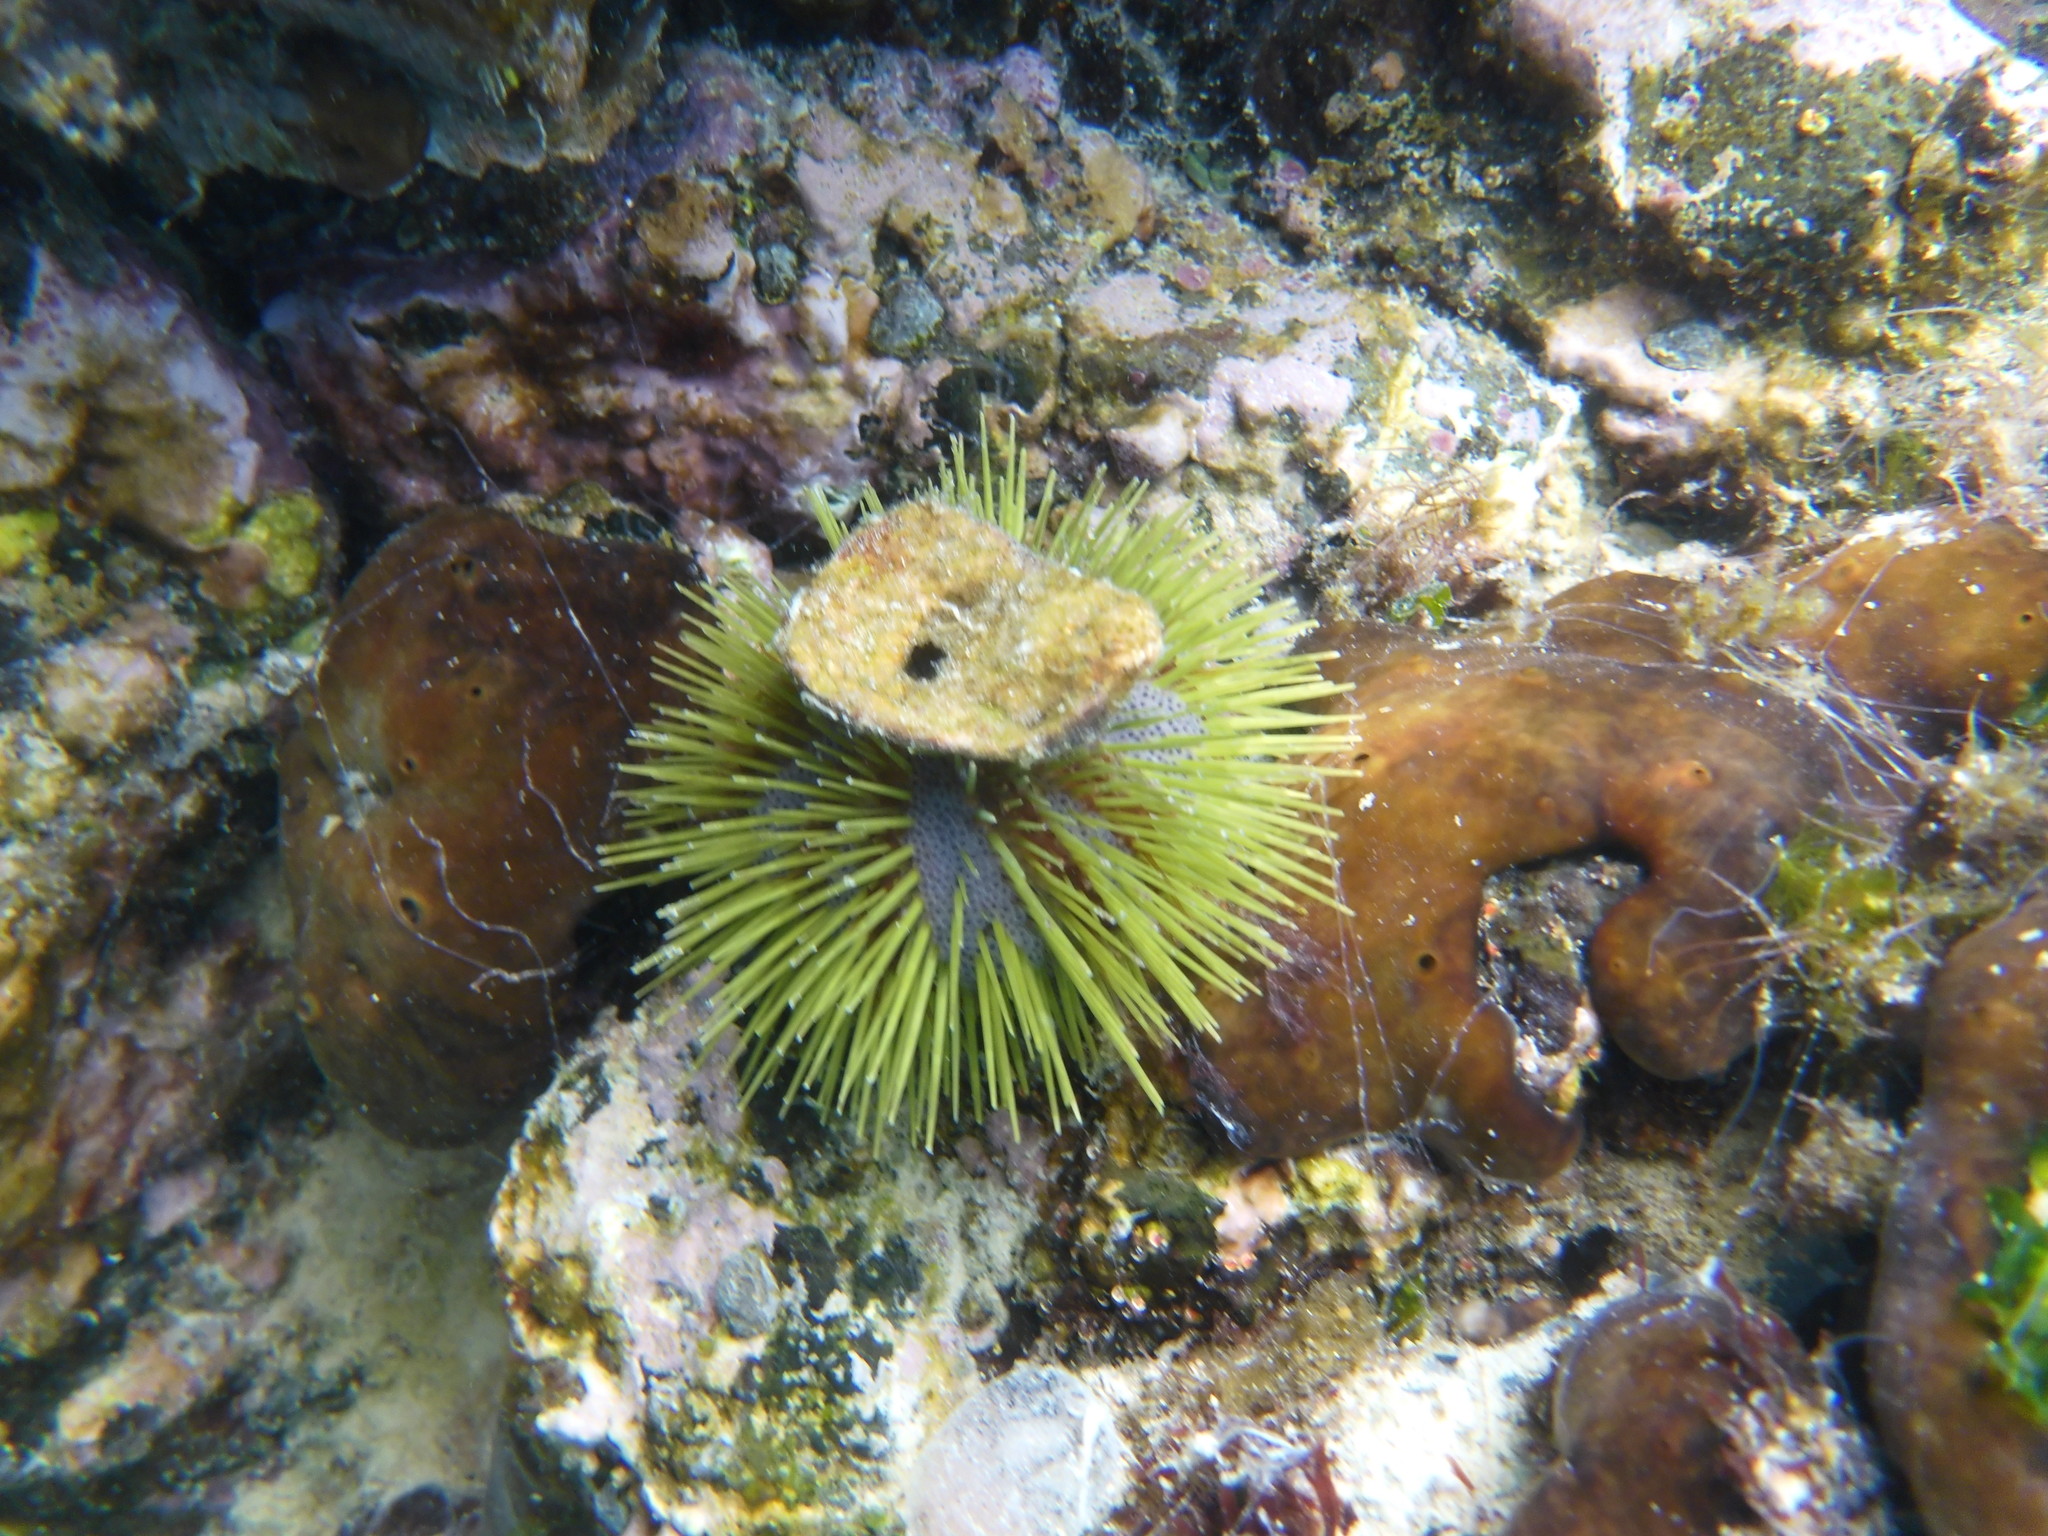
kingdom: Animalia
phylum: Echinodermata
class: Echinoidea
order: Camarodonta
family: Toxopneustidae
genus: Lytechinus
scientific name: Lytechinus semituberculatus
